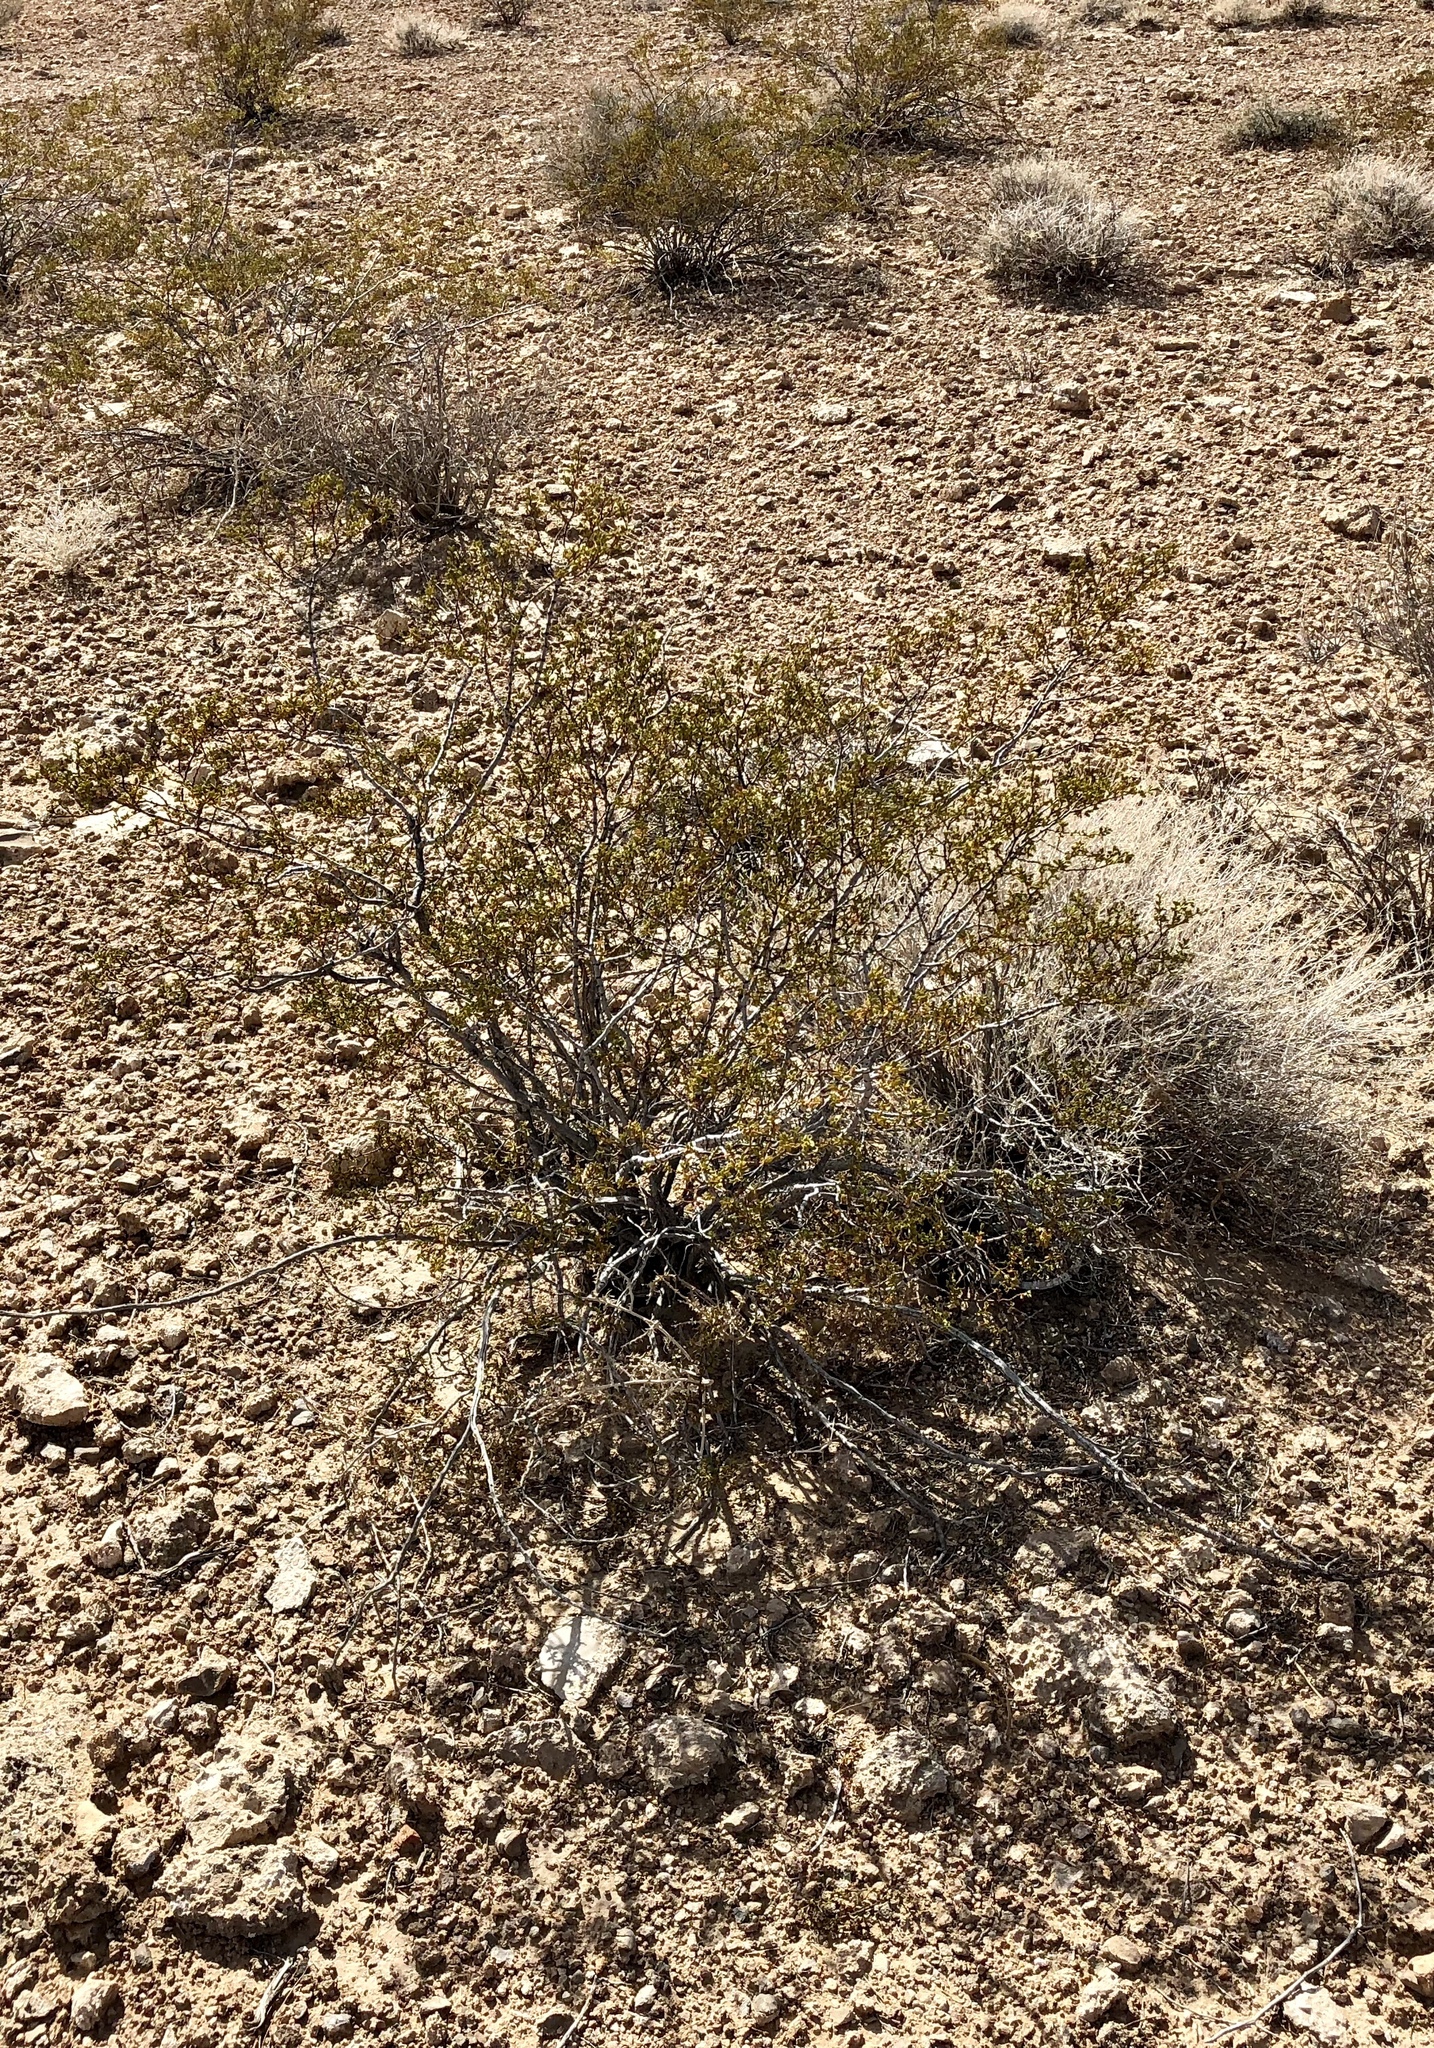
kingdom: Plantae
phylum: Tracheophyta
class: Magnoliopsida
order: Zygophyllales
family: Zygophyllaceae
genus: Larrea
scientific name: Larrea tridentata
